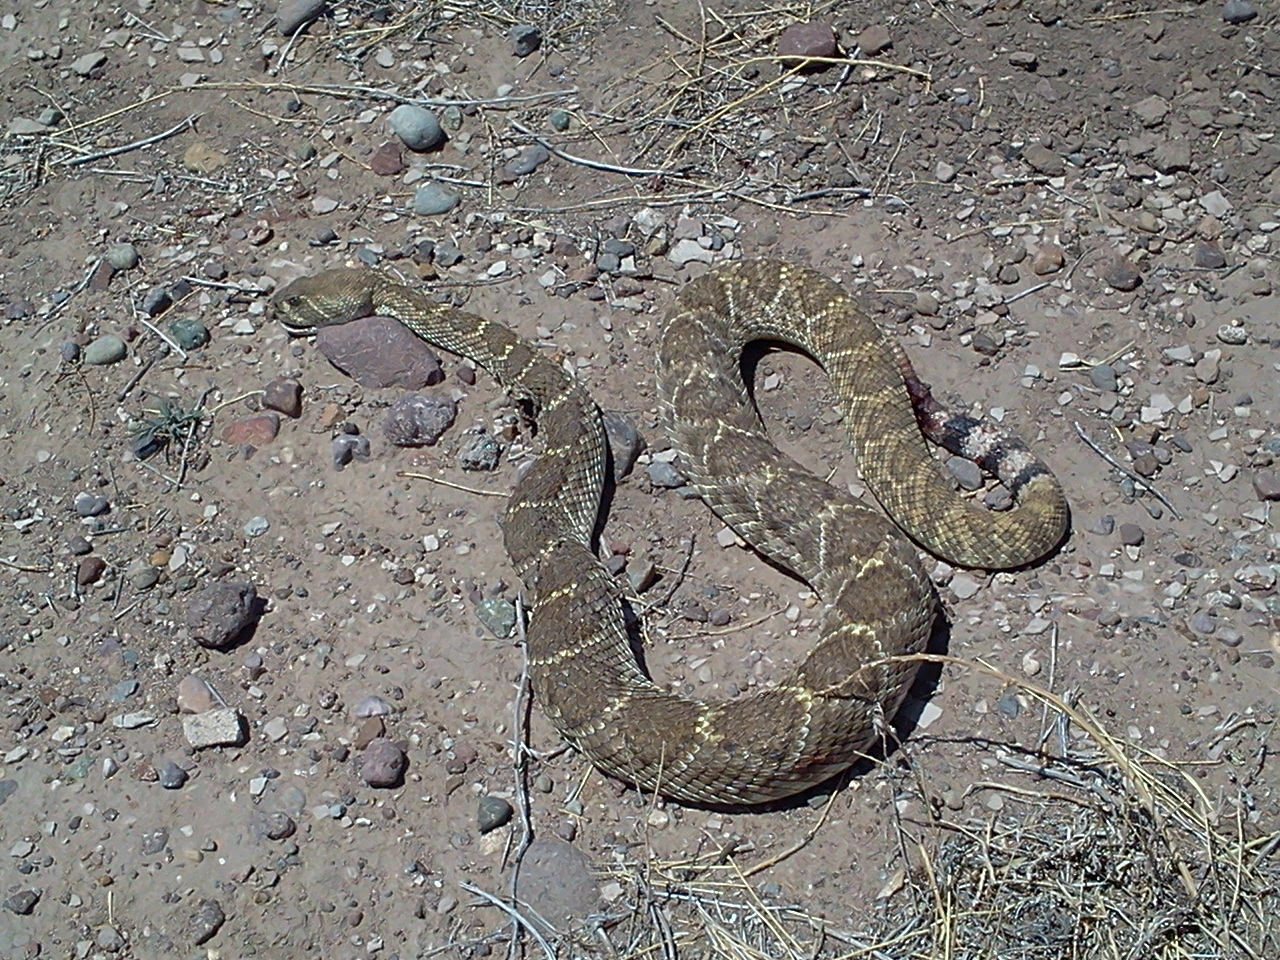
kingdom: Animalia
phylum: Chordata
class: Squamata
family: Viperidae
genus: Crotalus
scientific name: Crotalus atrox
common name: Western diamond-backed rattlesnake
